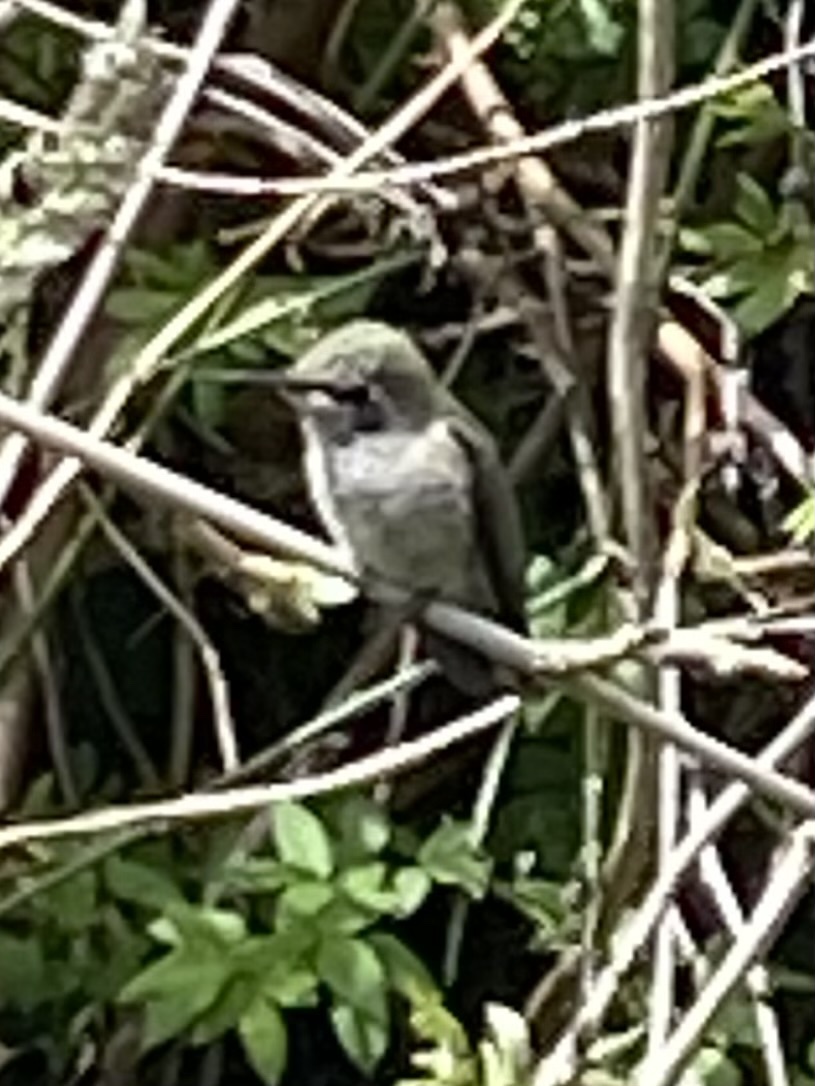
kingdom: Animalia
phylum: Chordata
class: Aves
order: Apodiformes
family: Trochilidae
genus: Calypte
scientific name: Calypte anna
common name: Anna's hummingbird
